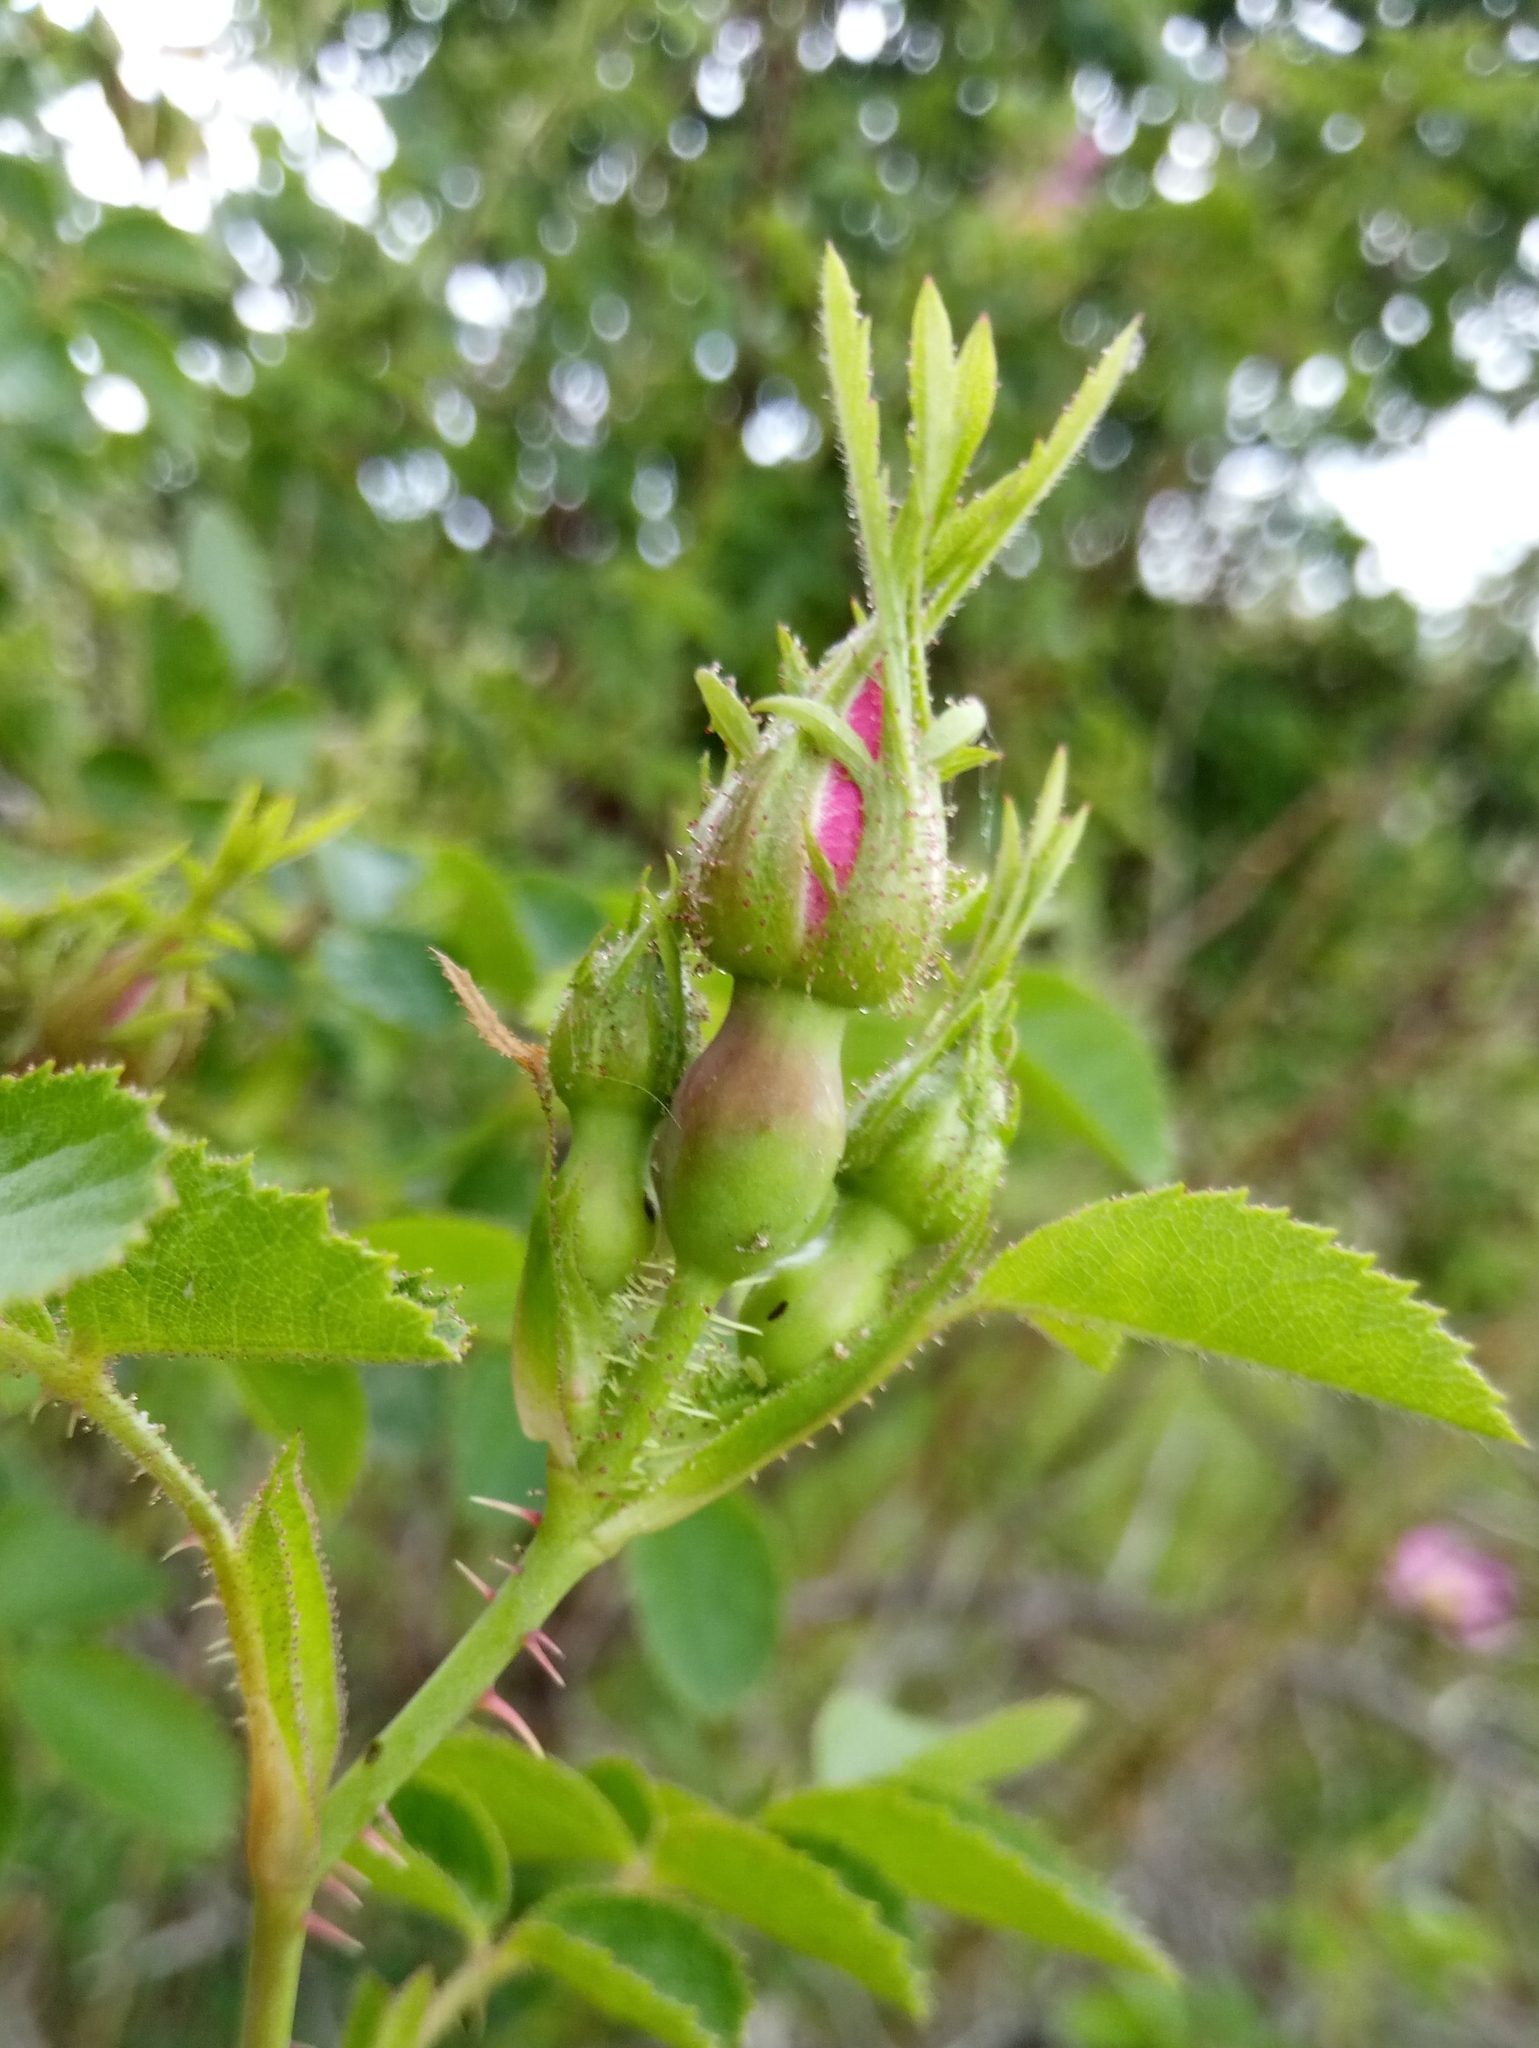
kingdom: Plantae
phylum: Tracheophyta
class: Magnoliopsida
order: Rosales
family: Rosaceae
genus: Rosa
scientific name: Rosa rubiginosa
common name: Sweet-briar
